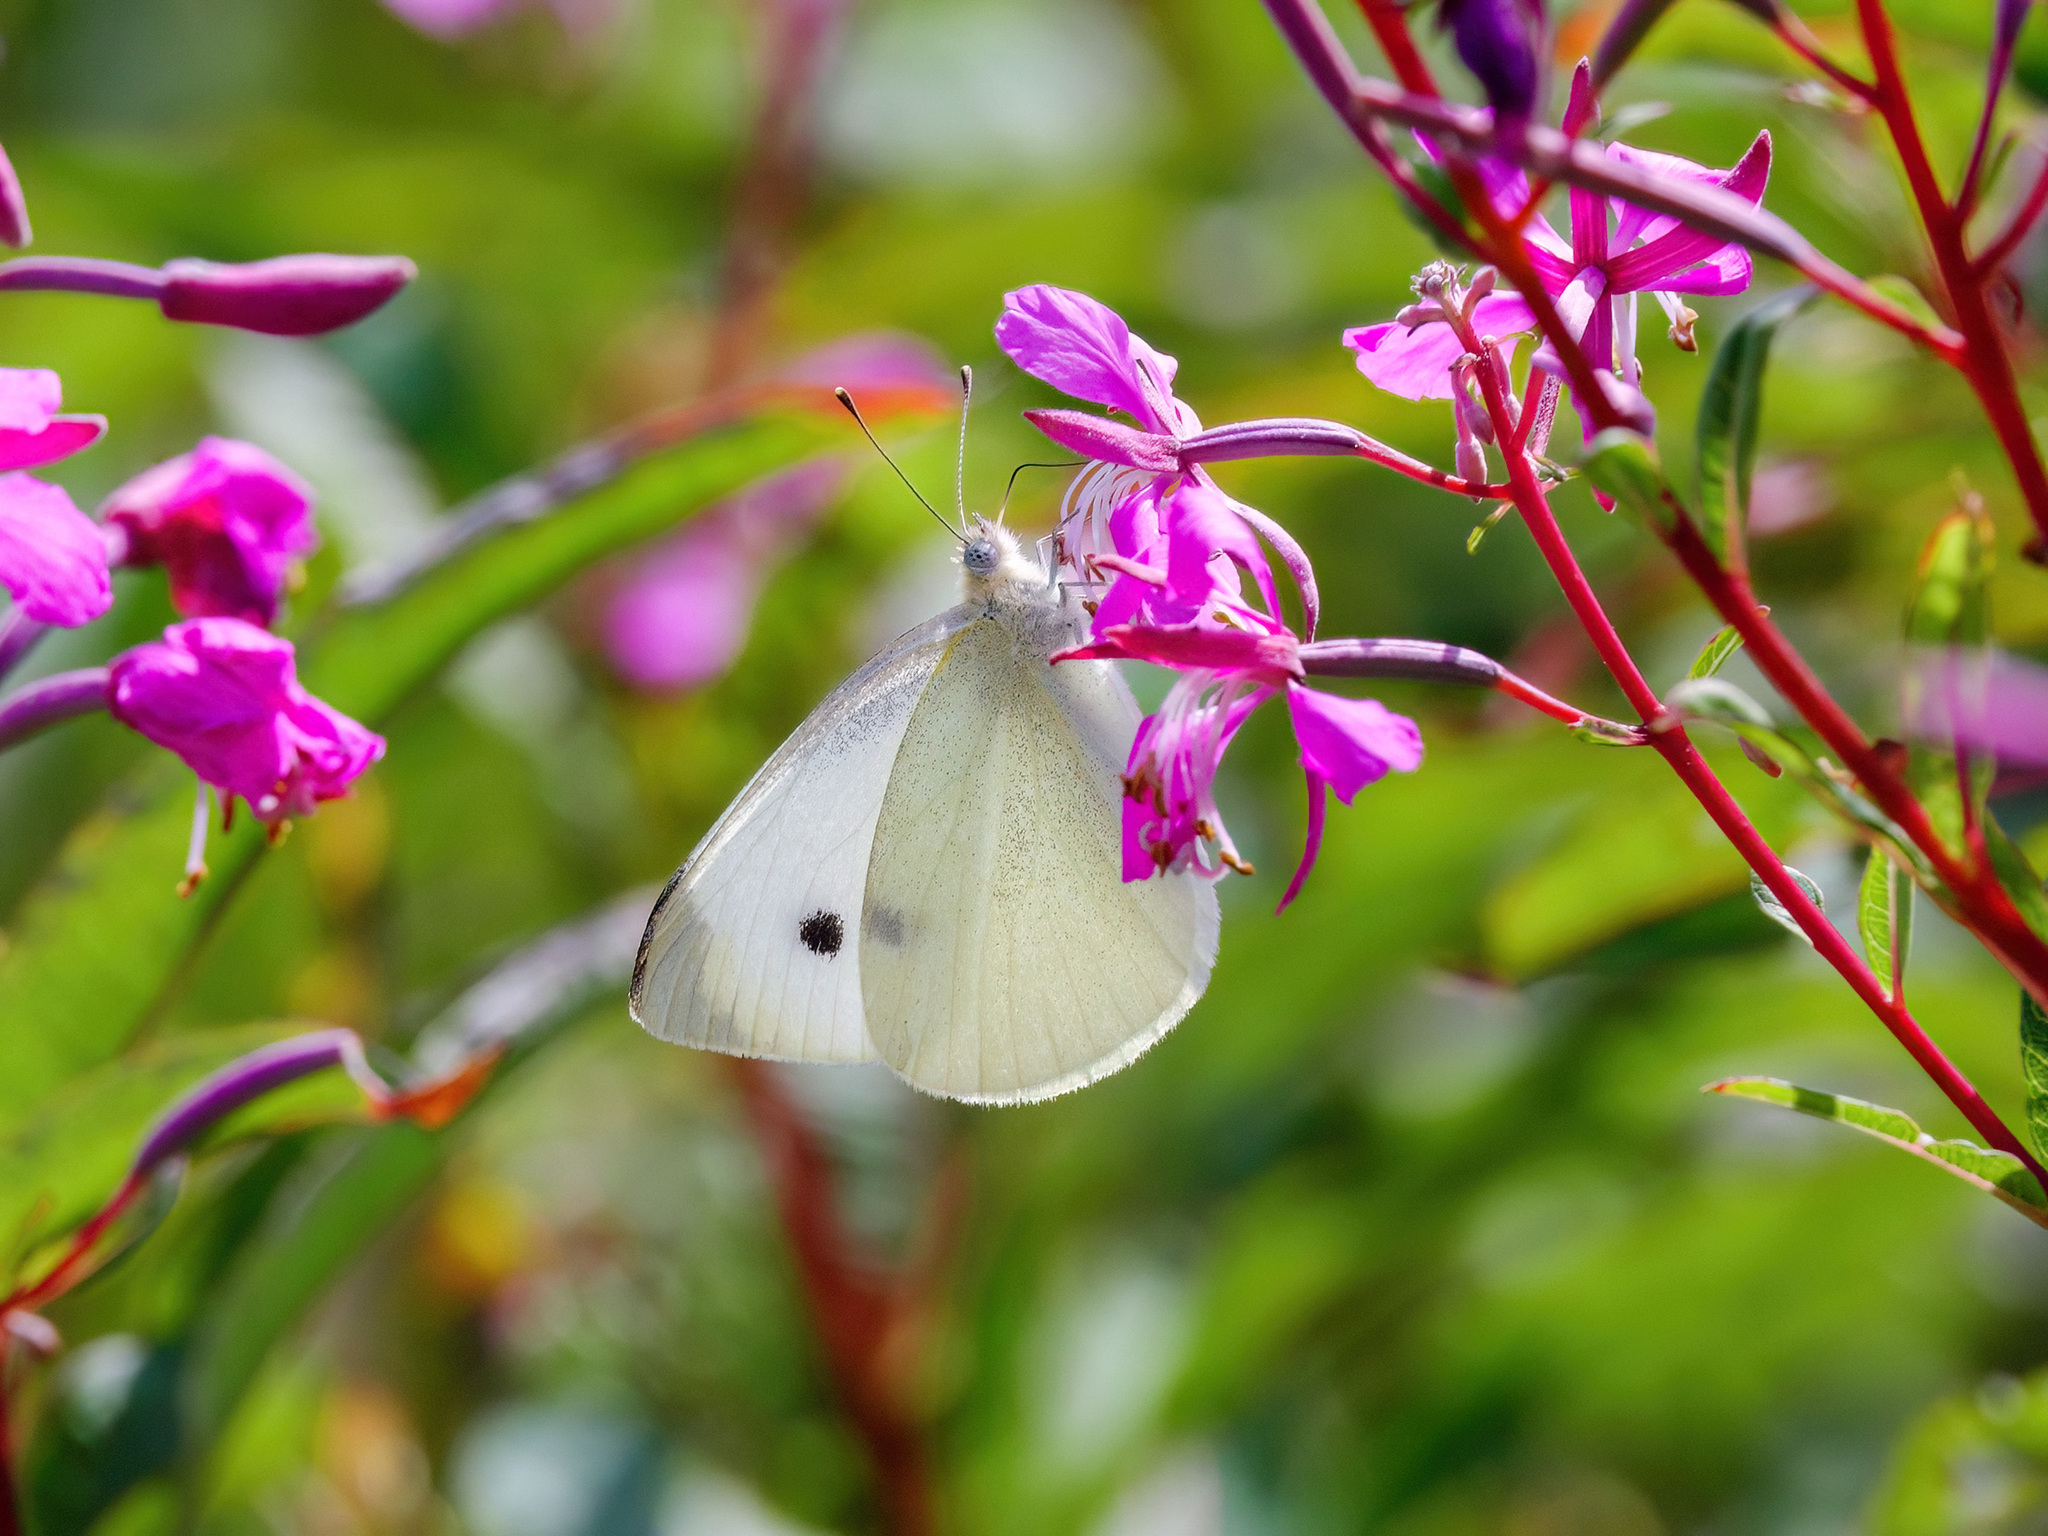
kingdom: Animalia
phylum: Arthropoda
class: Insecta
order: Lepidoptera
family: Pieridae
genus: Pieris
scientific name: Pieris rapae
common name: Small white
